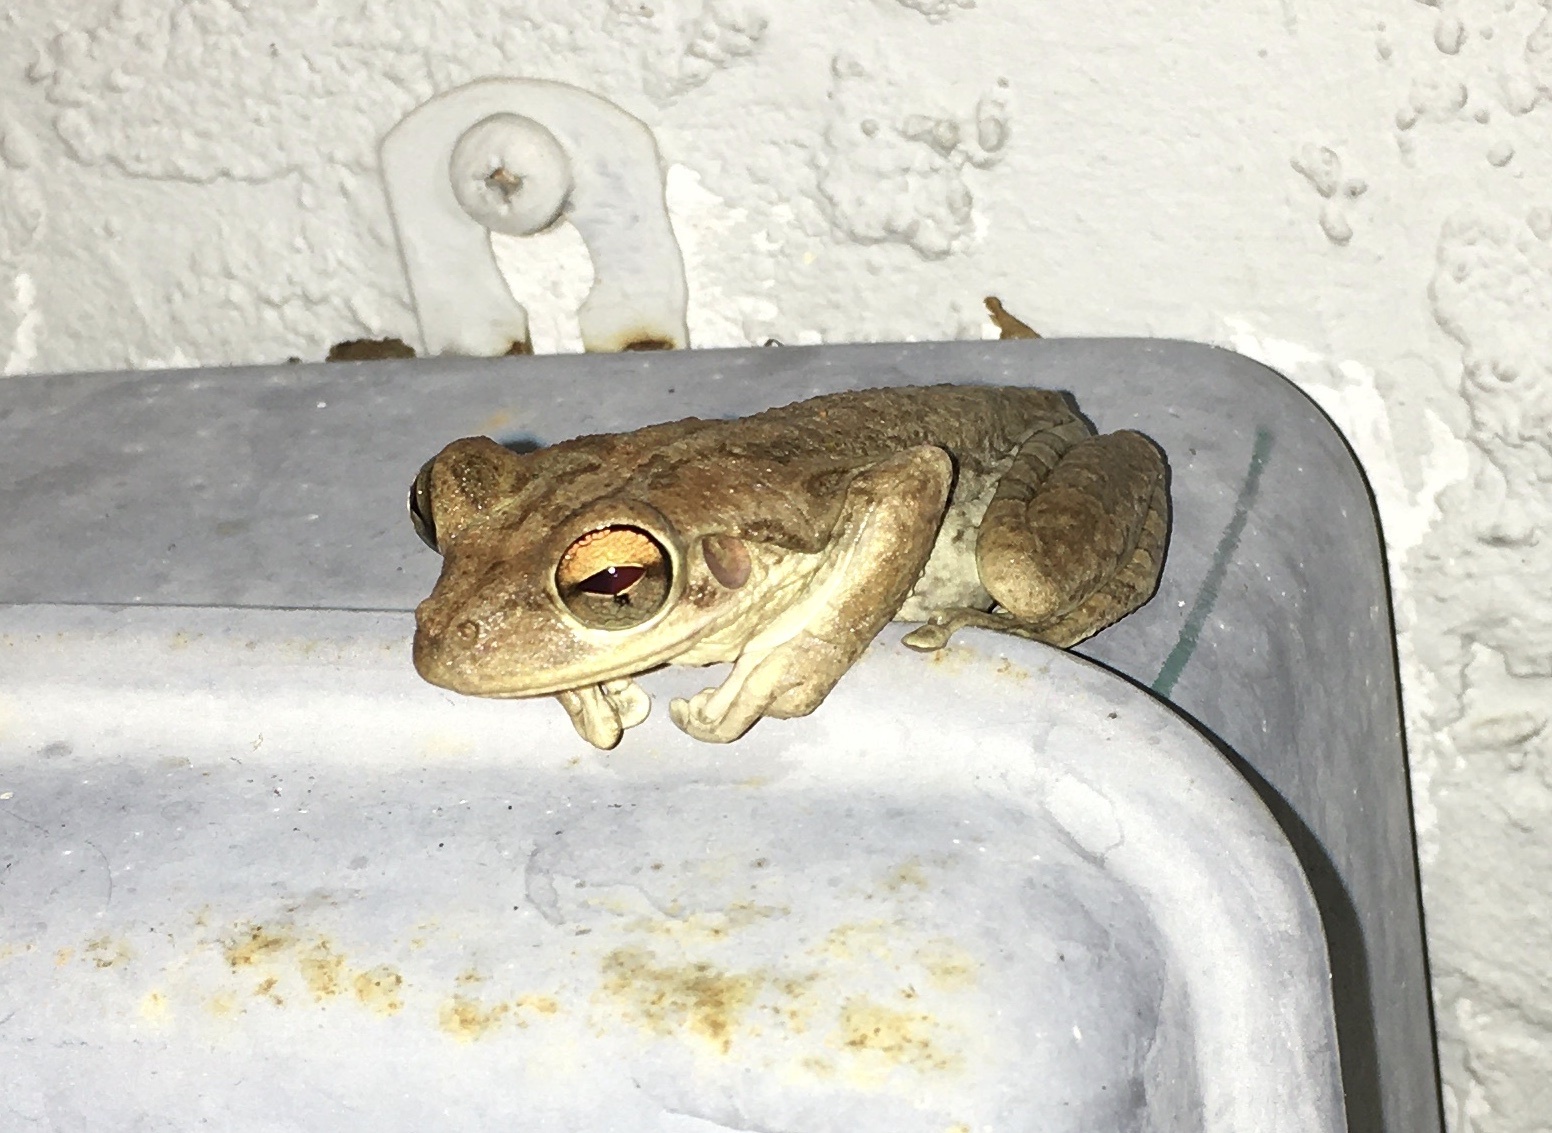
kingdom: Animalia
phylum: Chordata
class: Amphibia
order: Anura
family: Hylidae
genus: Osteopilus
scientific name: Osteopilus septentrionalis
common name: Cuban treefrog
